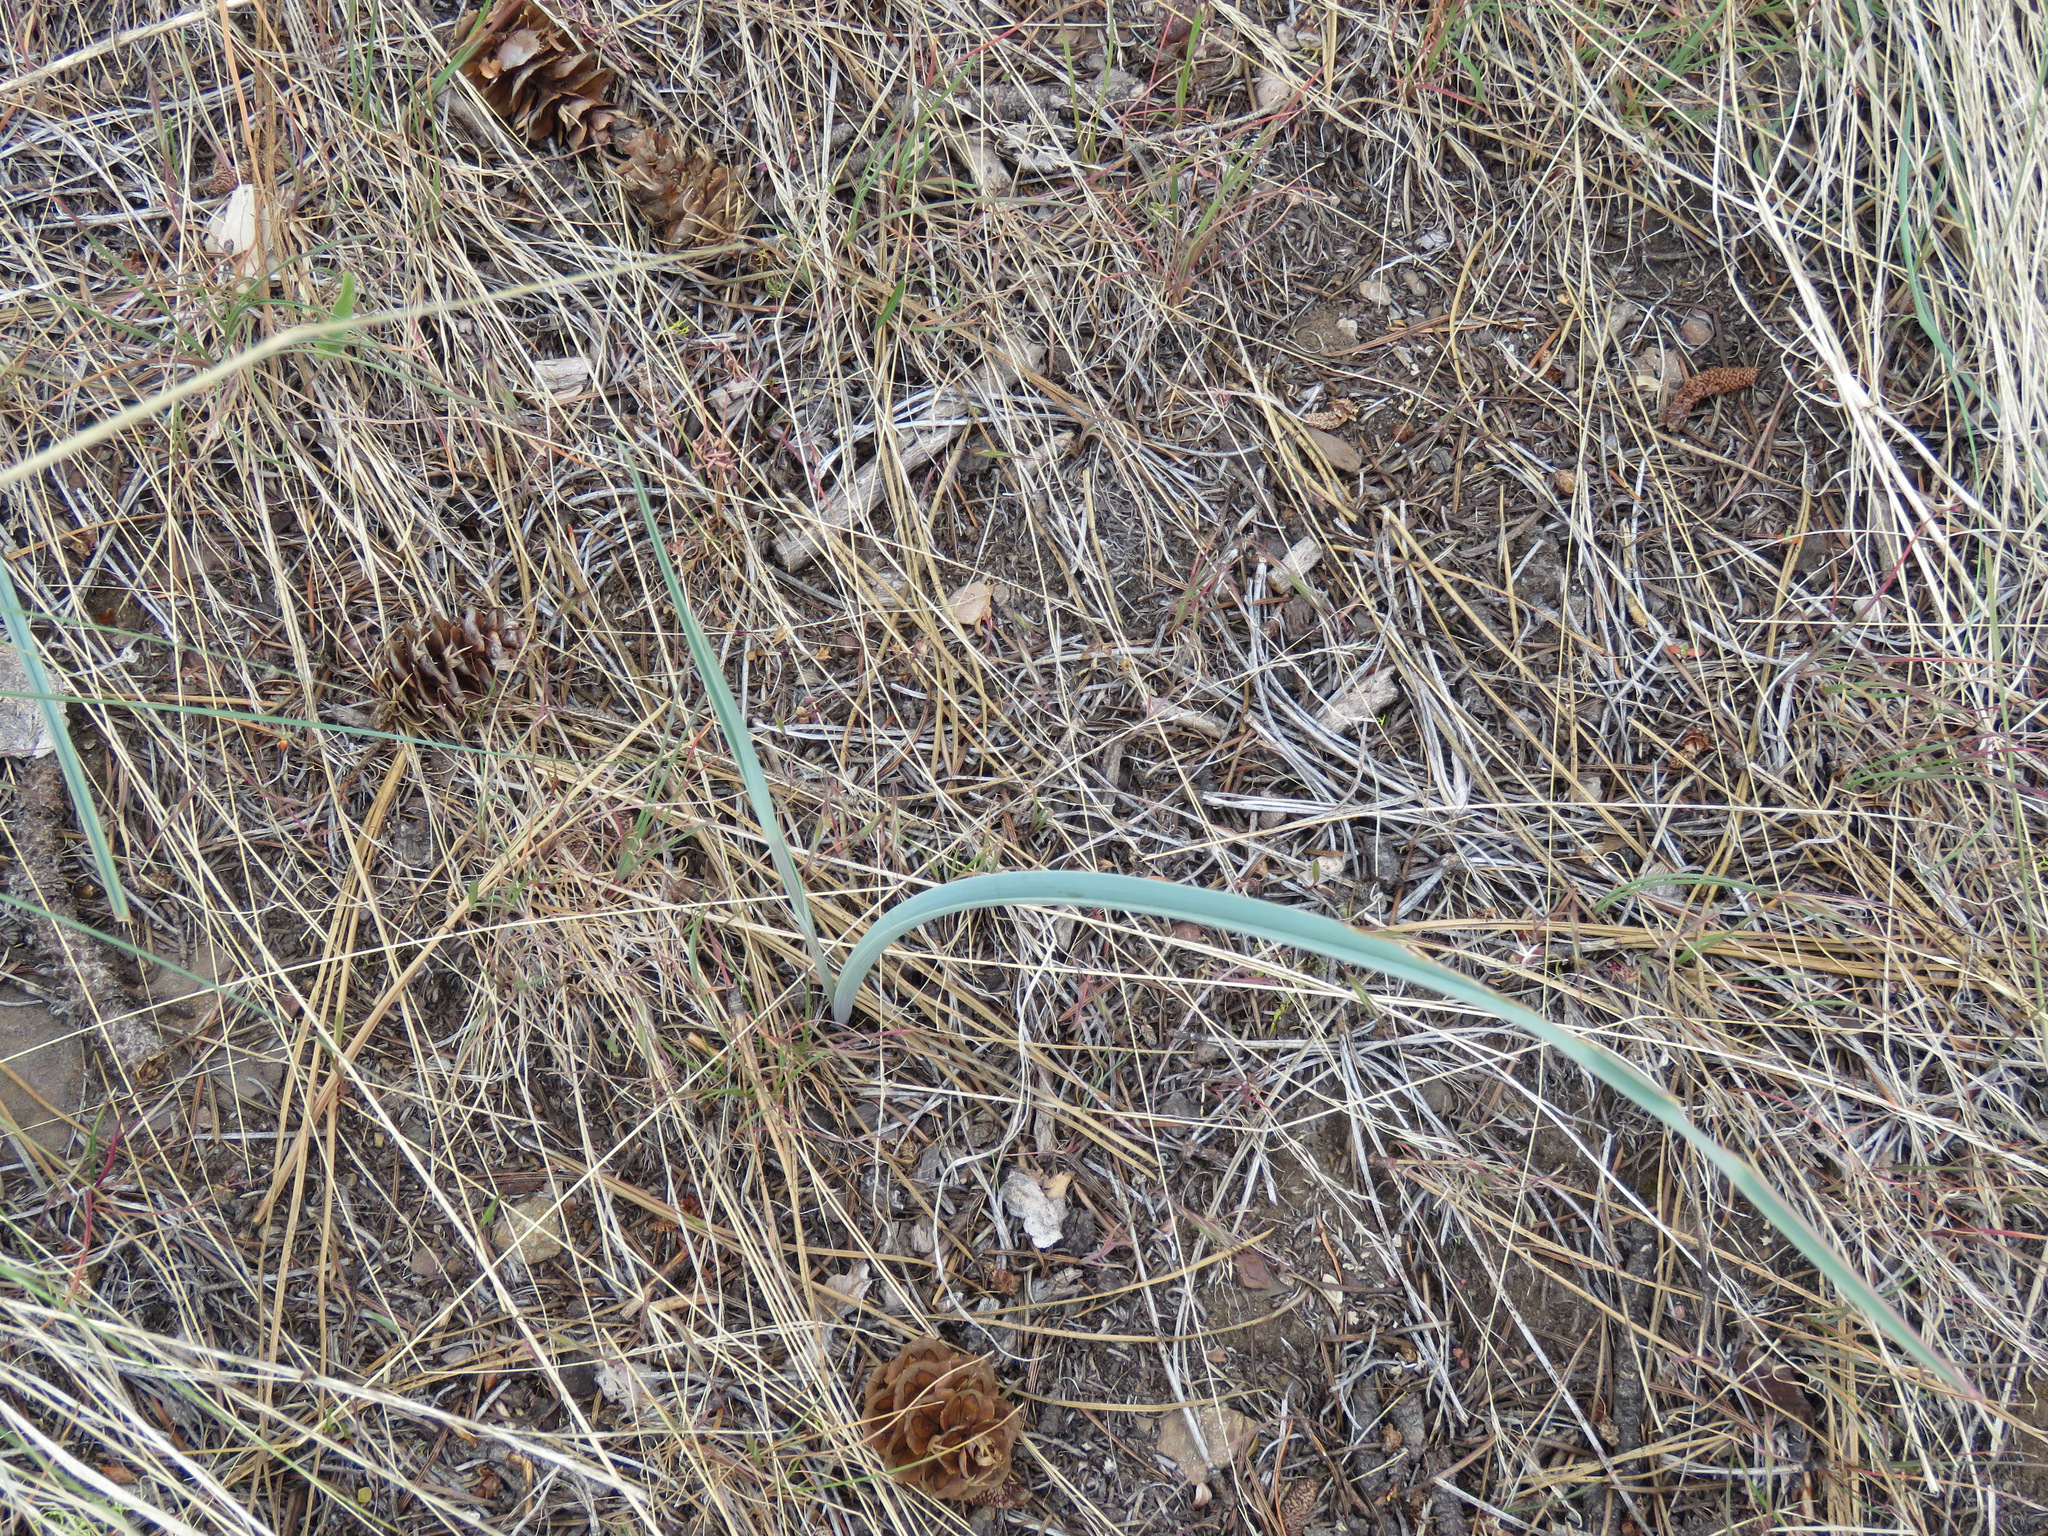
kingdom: Plantae
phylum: Tracheophyta
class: Liliopsida
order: Liliales
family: Liliaceae
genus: Calochortus
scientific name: Calochortus macrocarpus
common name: Green-band mariposa lily
